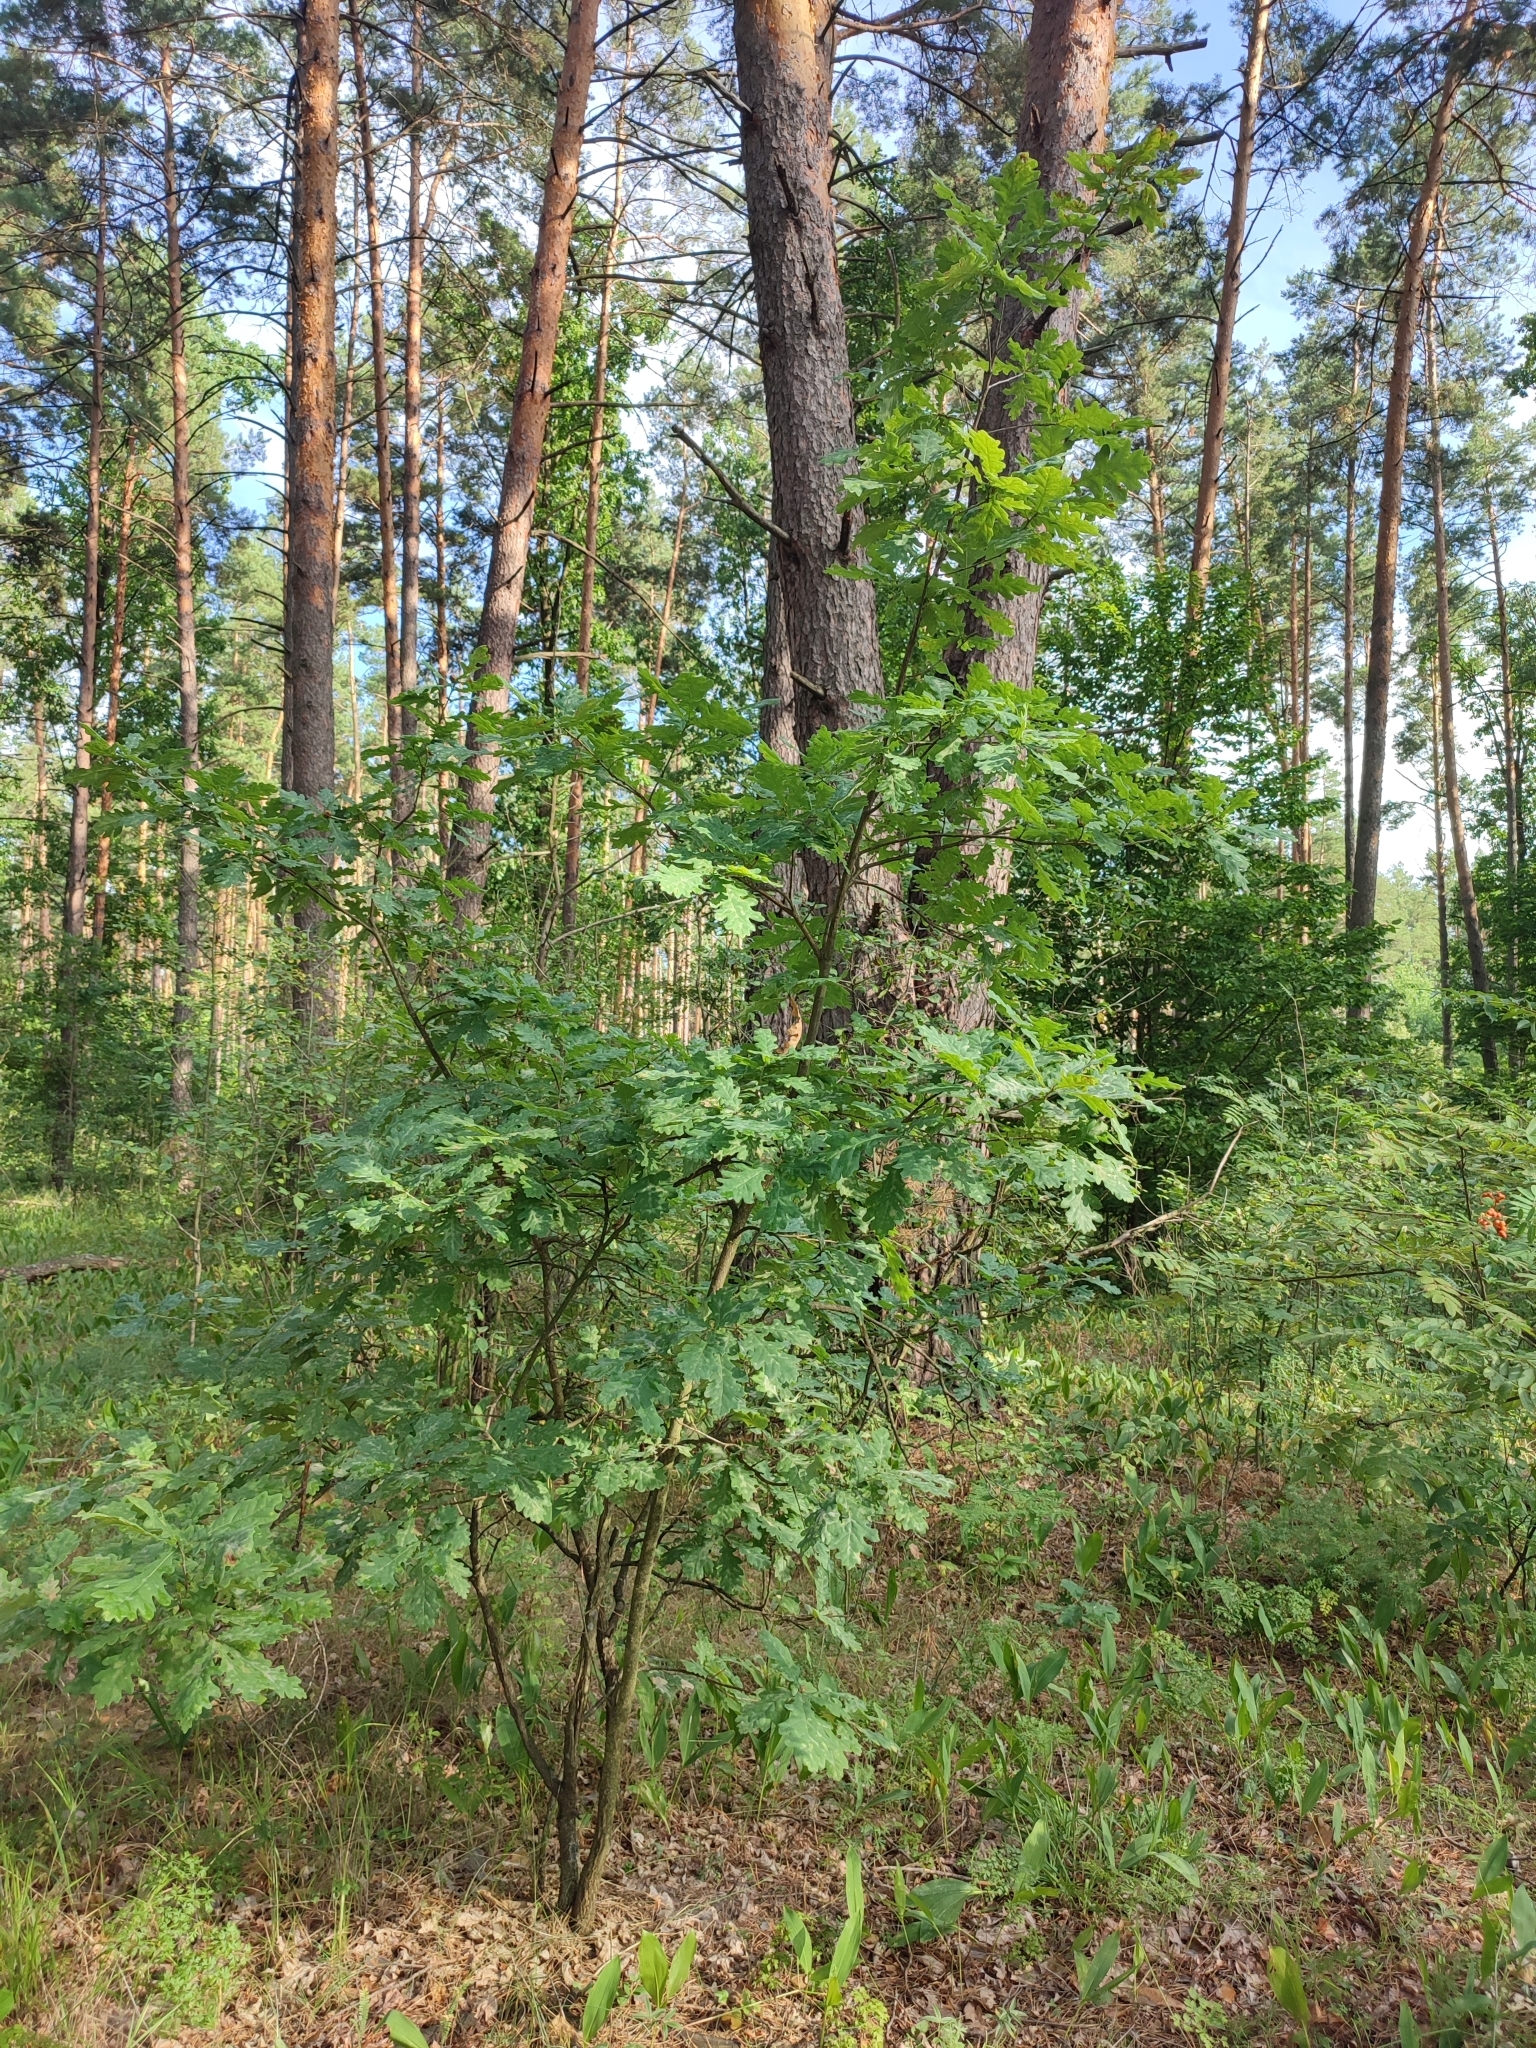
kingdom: Plantae
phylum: Tracheophyta
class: Magnoliopsida
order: Fagales
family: Fagaceae
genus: Quercus
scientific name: Quercus robur
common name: Pedunculate oak
